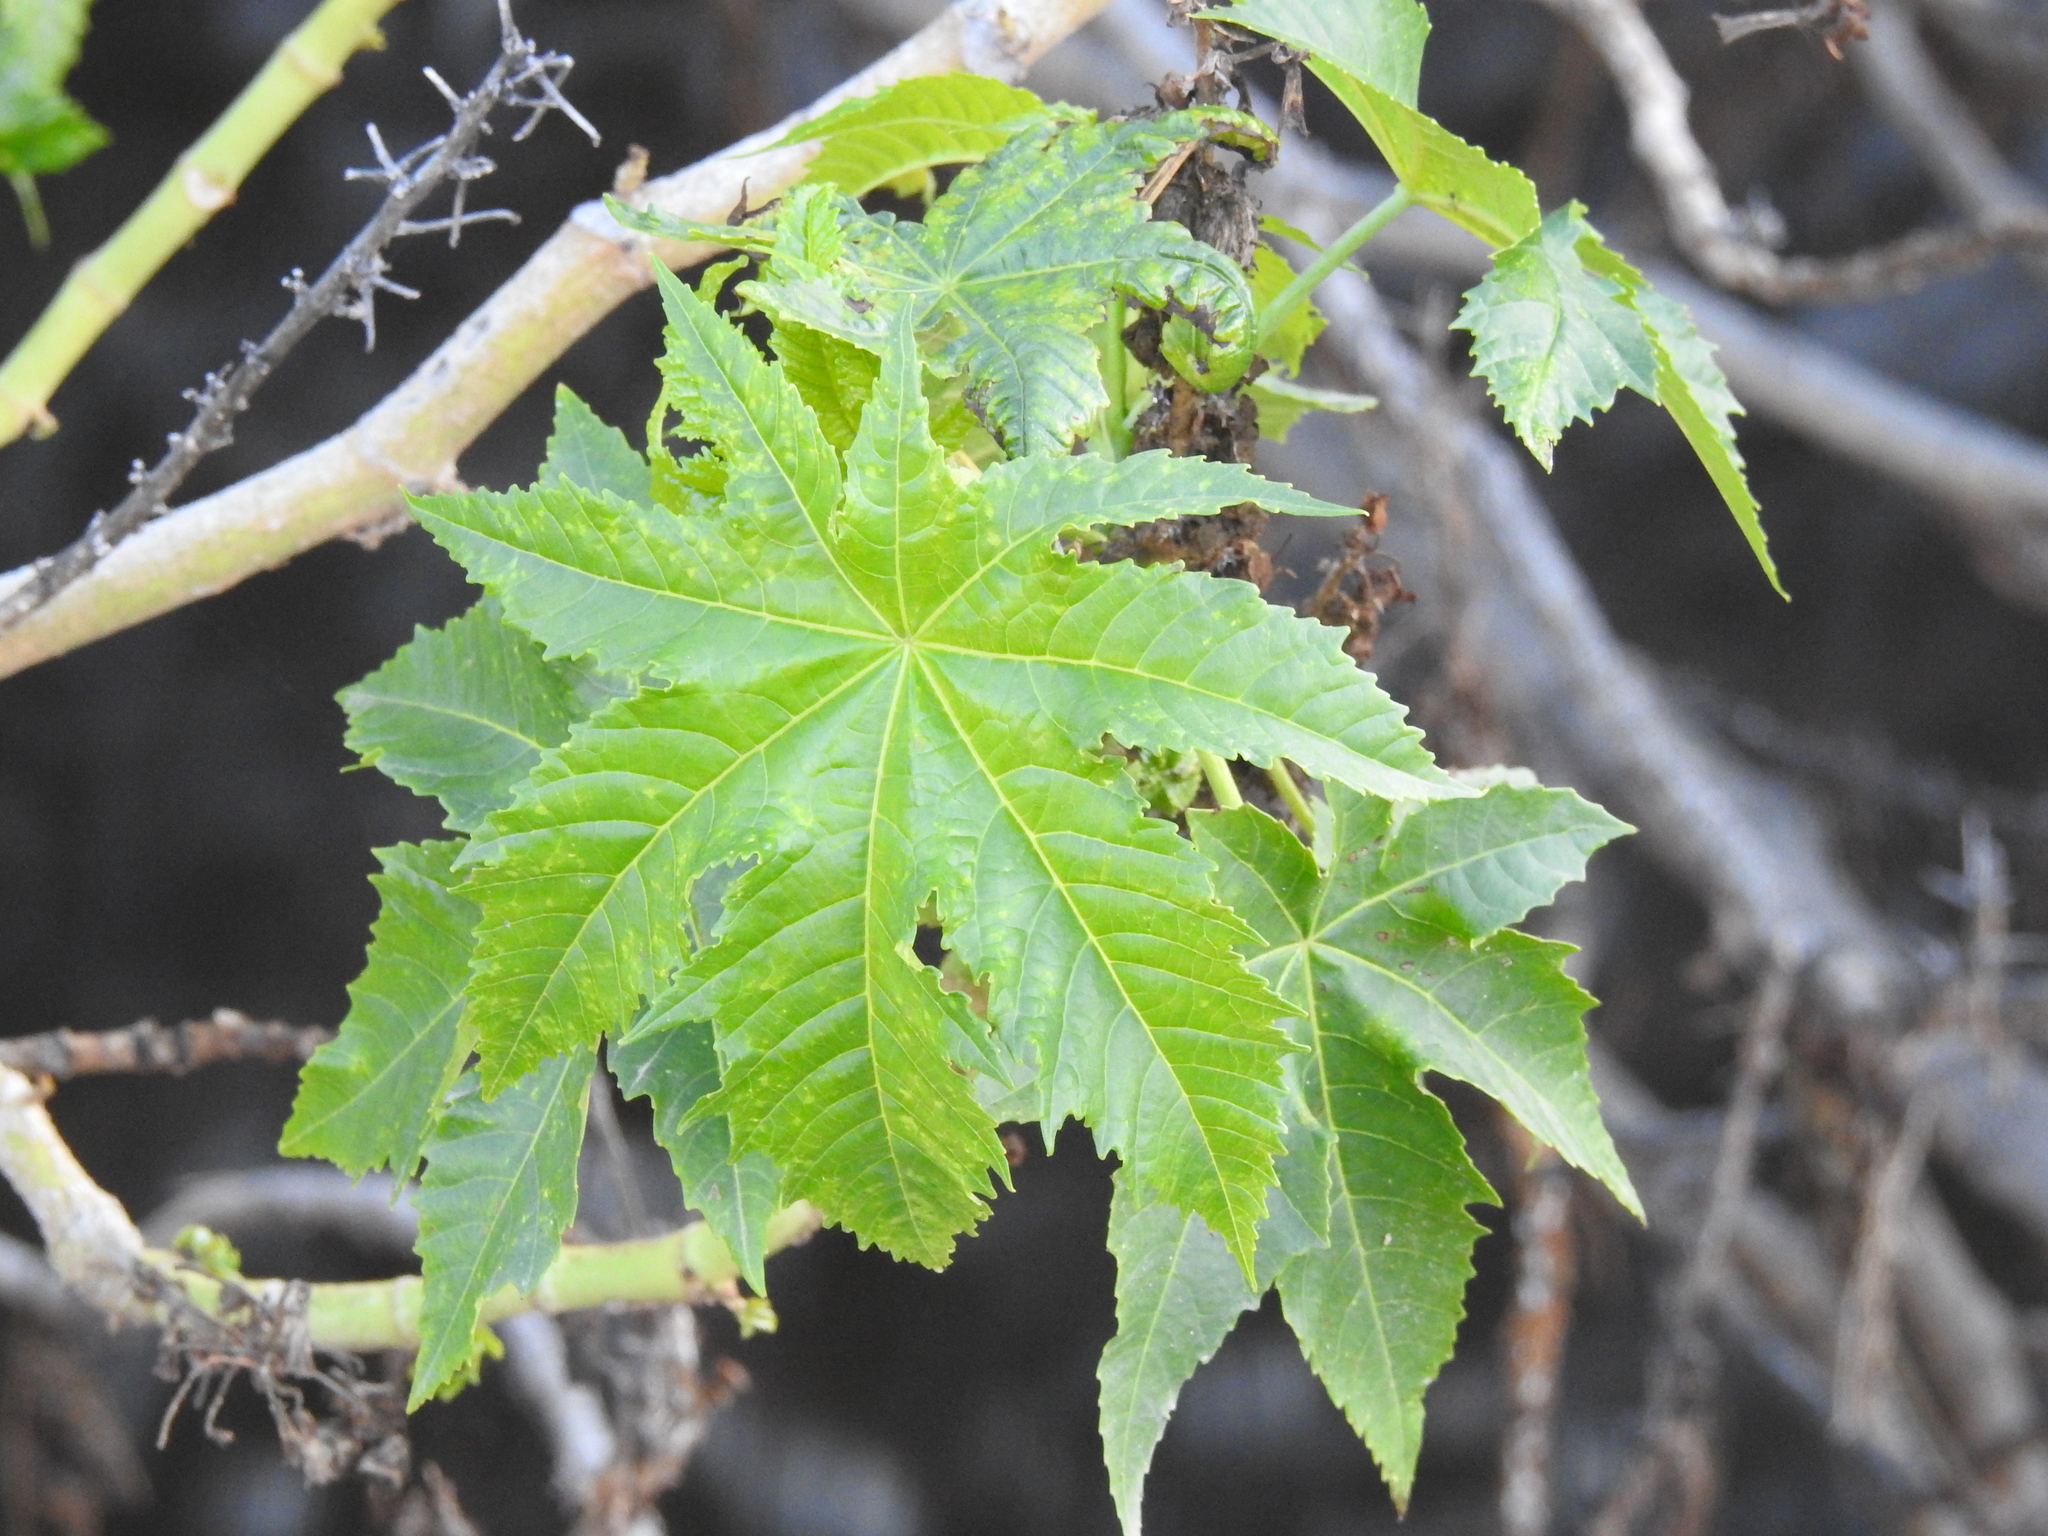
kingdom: Plantae
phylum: Tracheophyta
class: Magnoliopsida
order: Malpighiales
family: Euphorbiaceae
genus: Ricinus
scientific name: Ricinus communis
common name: Castor-oil-plant
